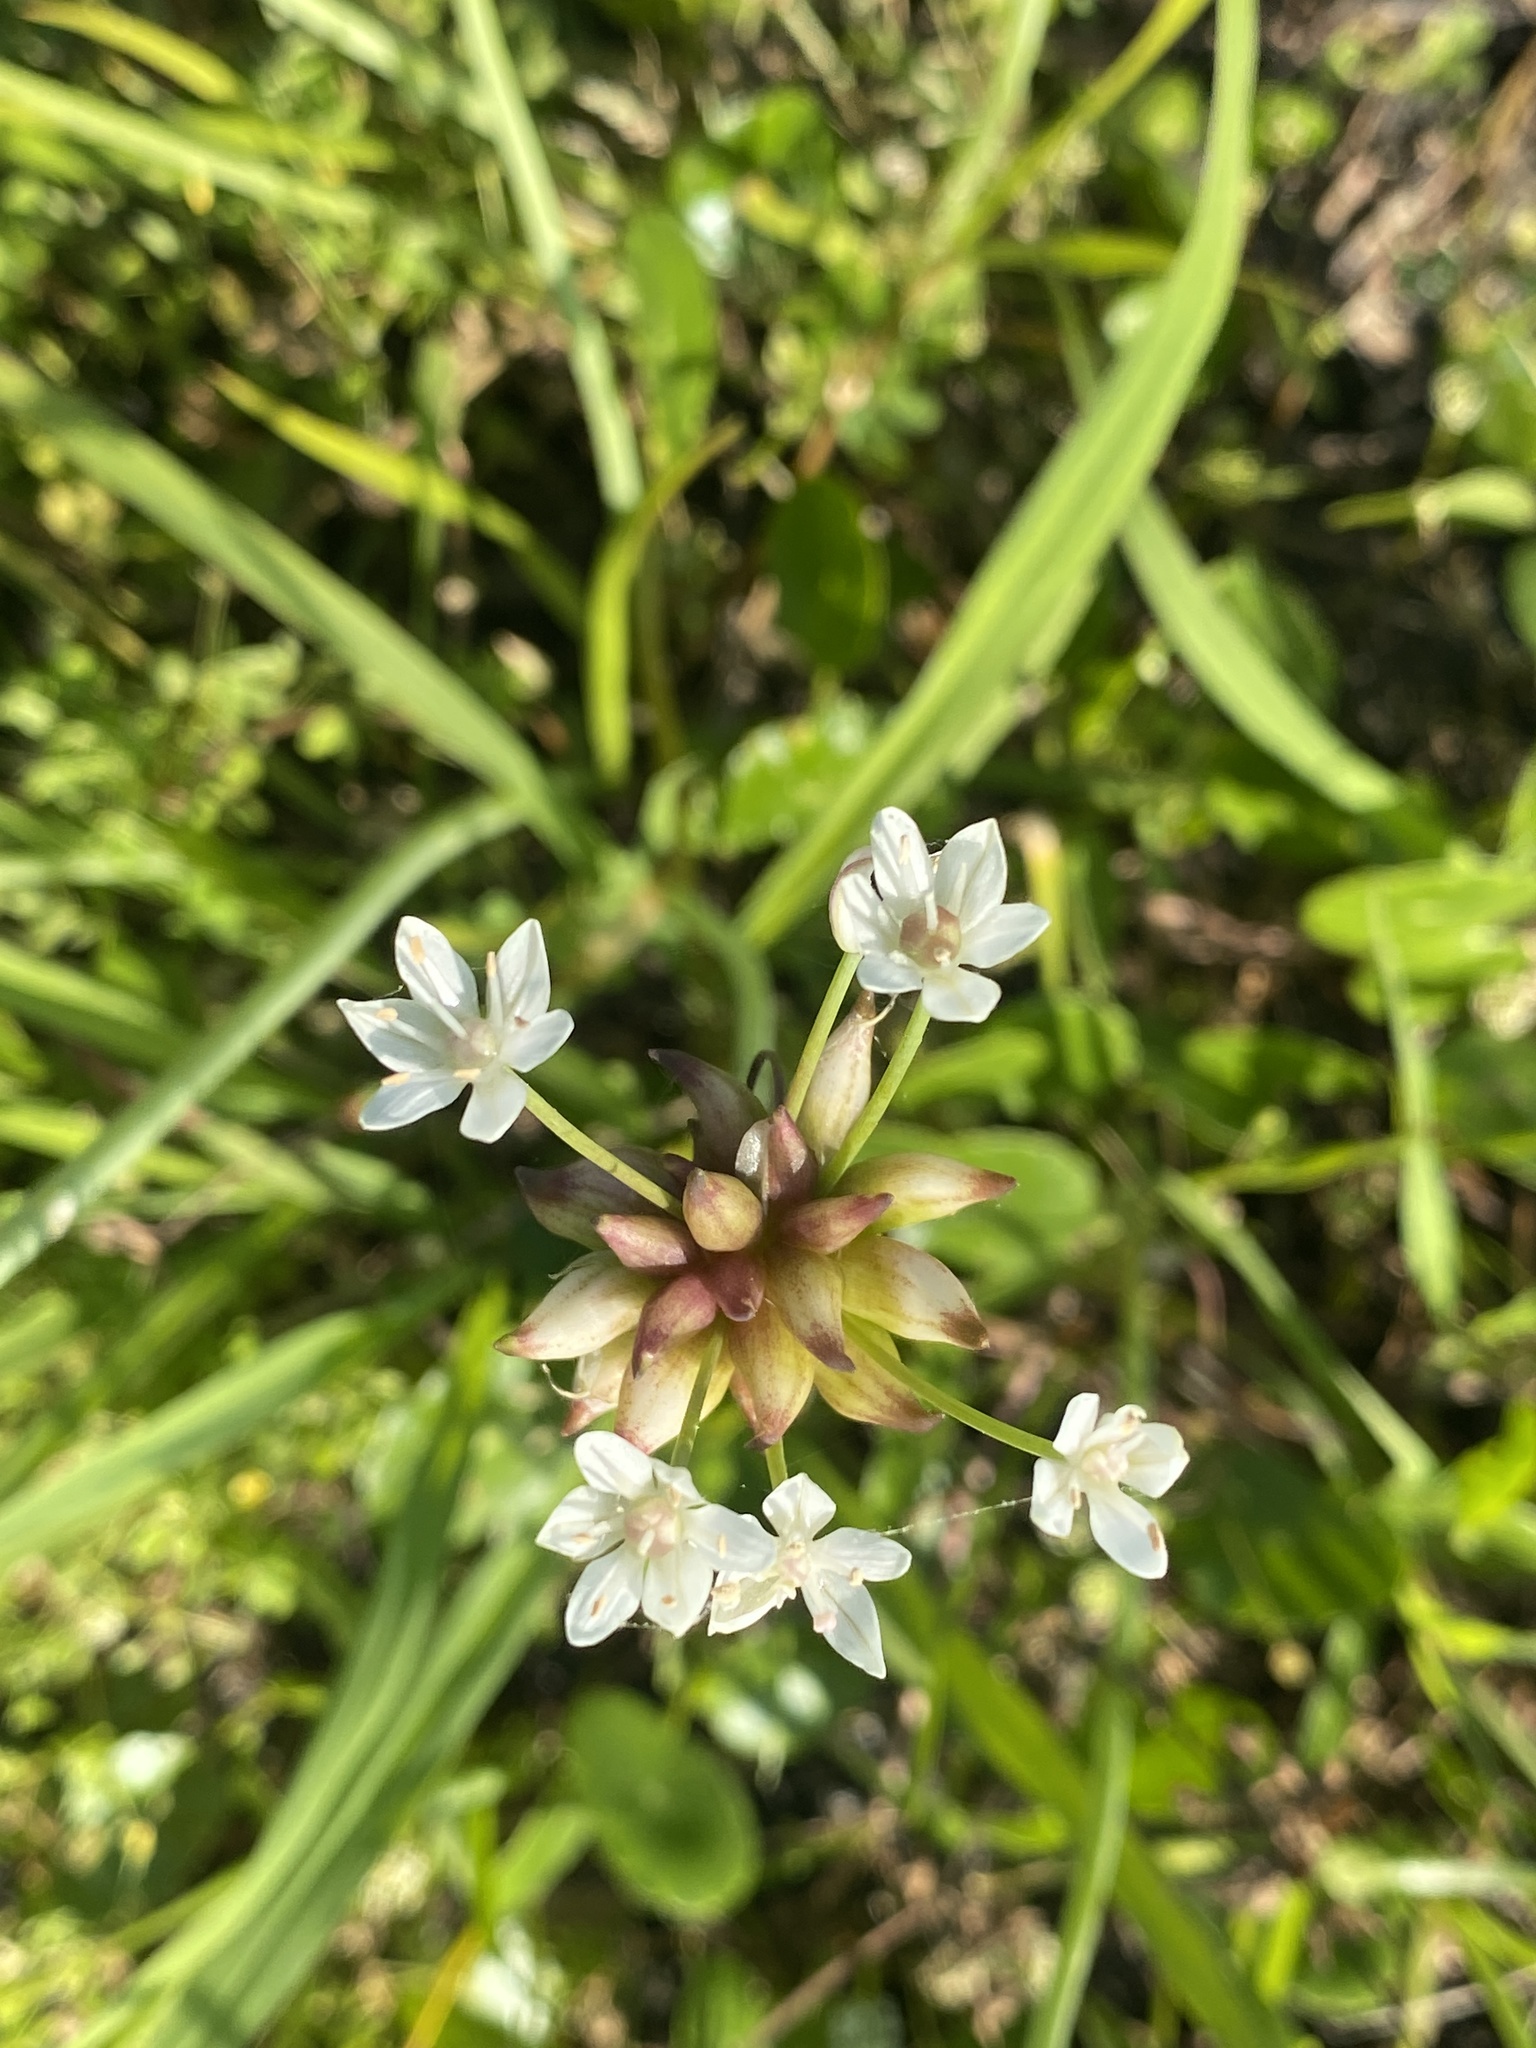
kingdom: Plantae
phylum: Tracheophyta
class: Liliopsida
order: Asparagales
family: Amaryllidaceae
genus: Allium
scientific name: Allium canadense
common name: Meadow garlic
